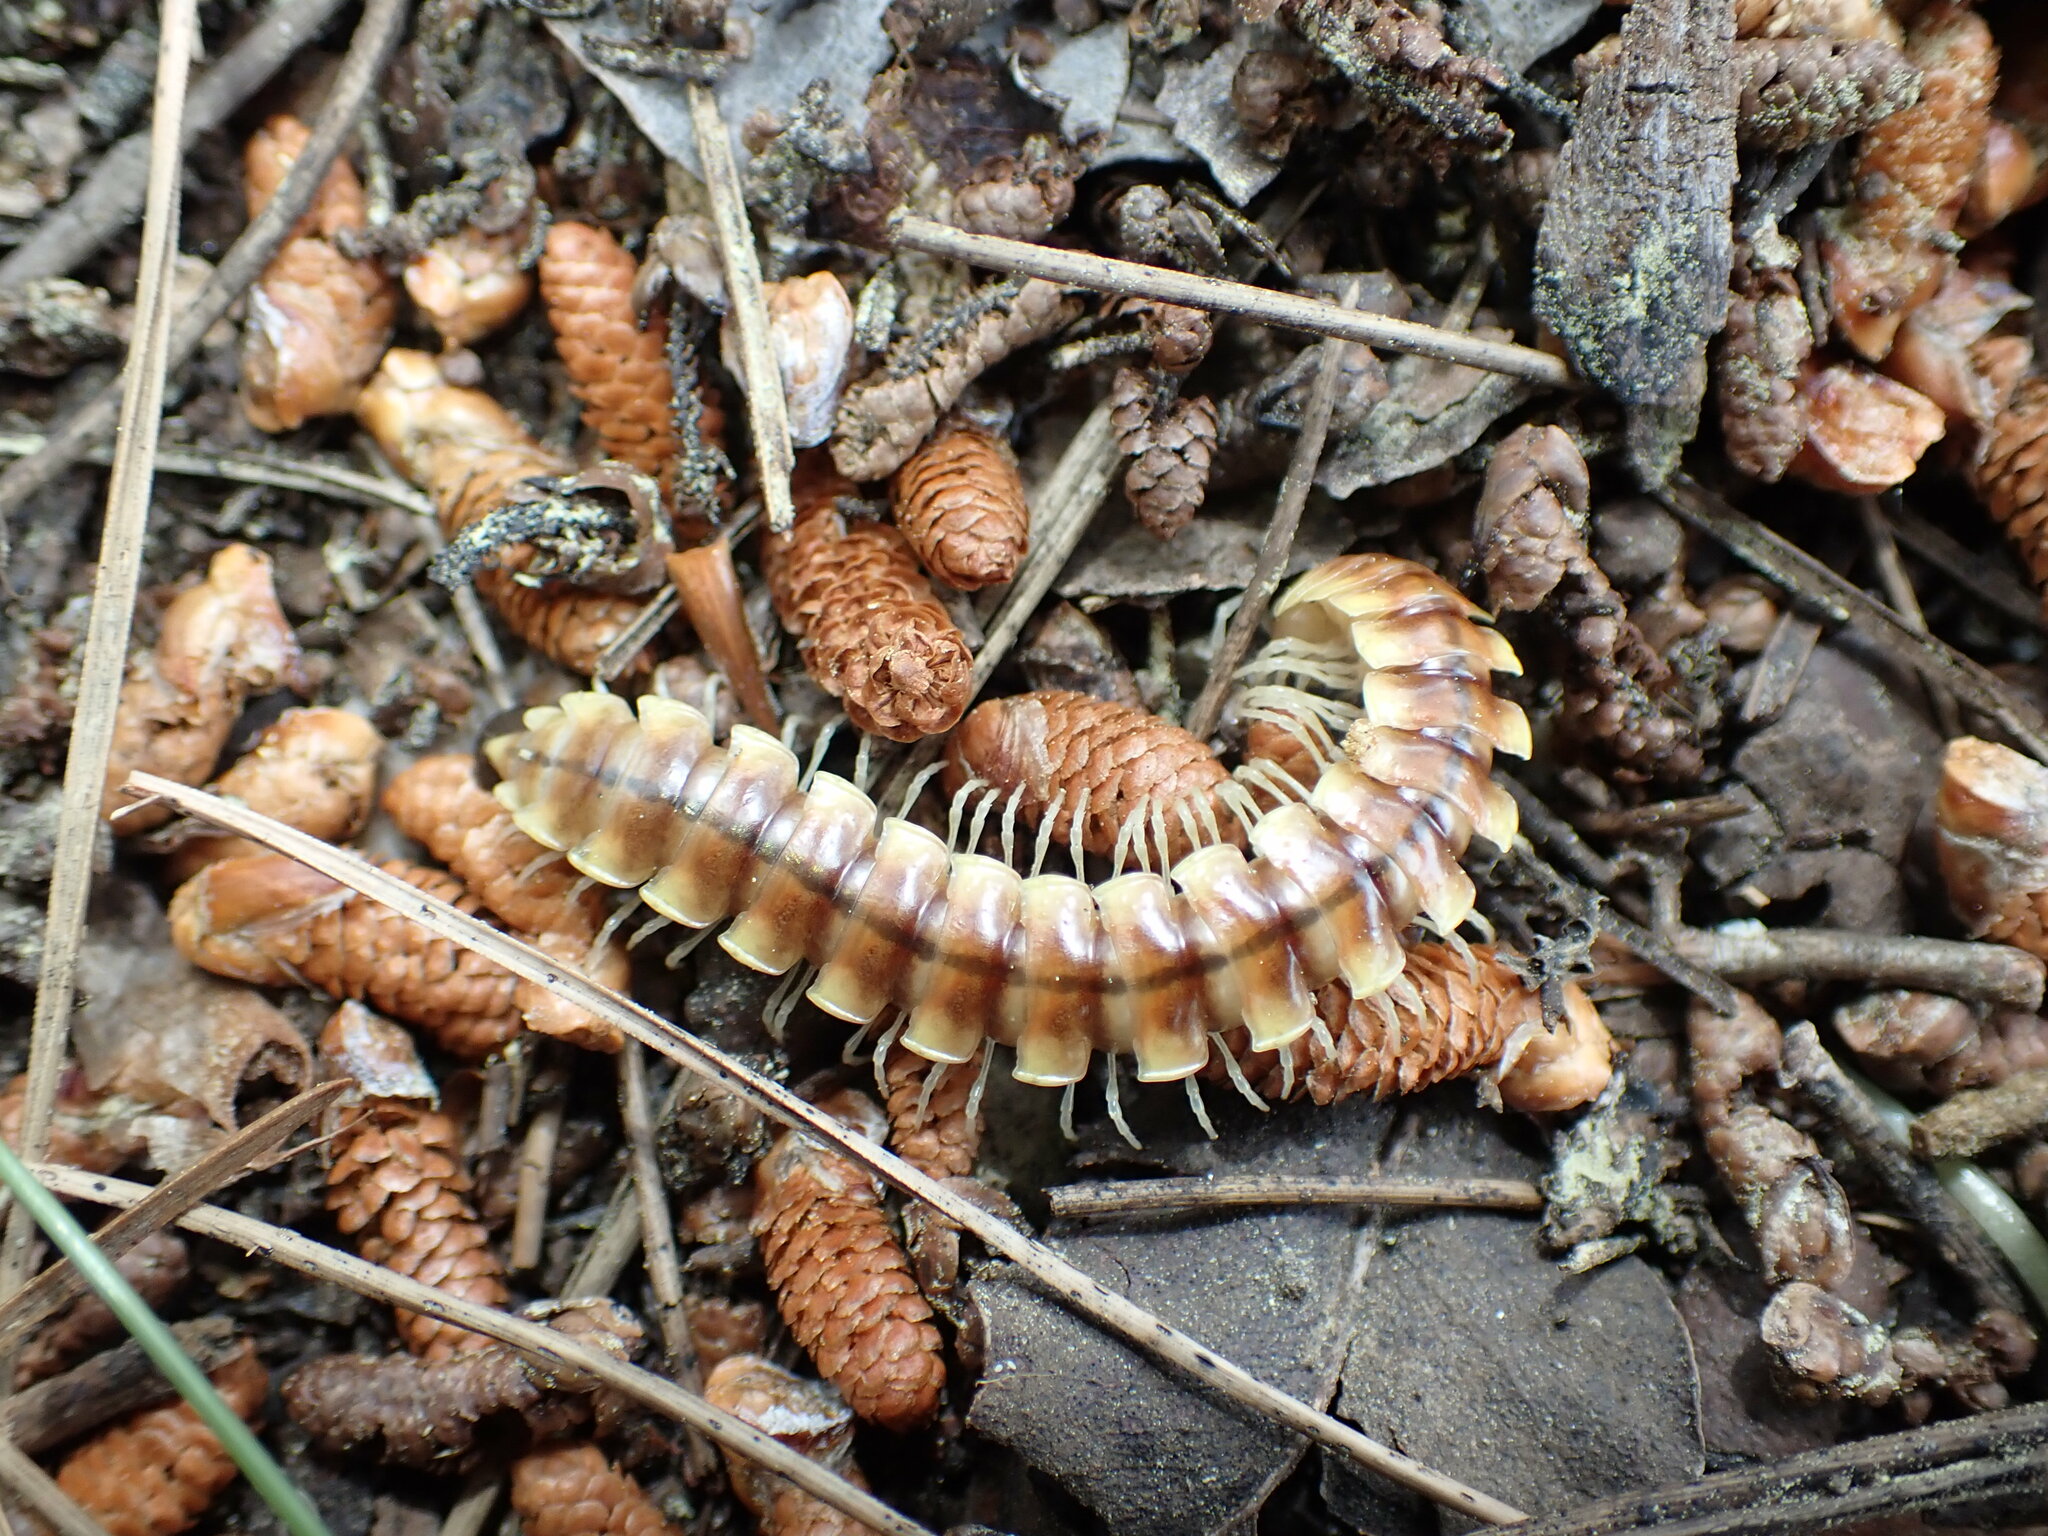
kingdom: Animalia
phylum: Arthropoda
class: Diplopoda
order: Polydesmida
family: Xystodesmidae
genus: Melaphe
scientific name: Melaphe vestita
